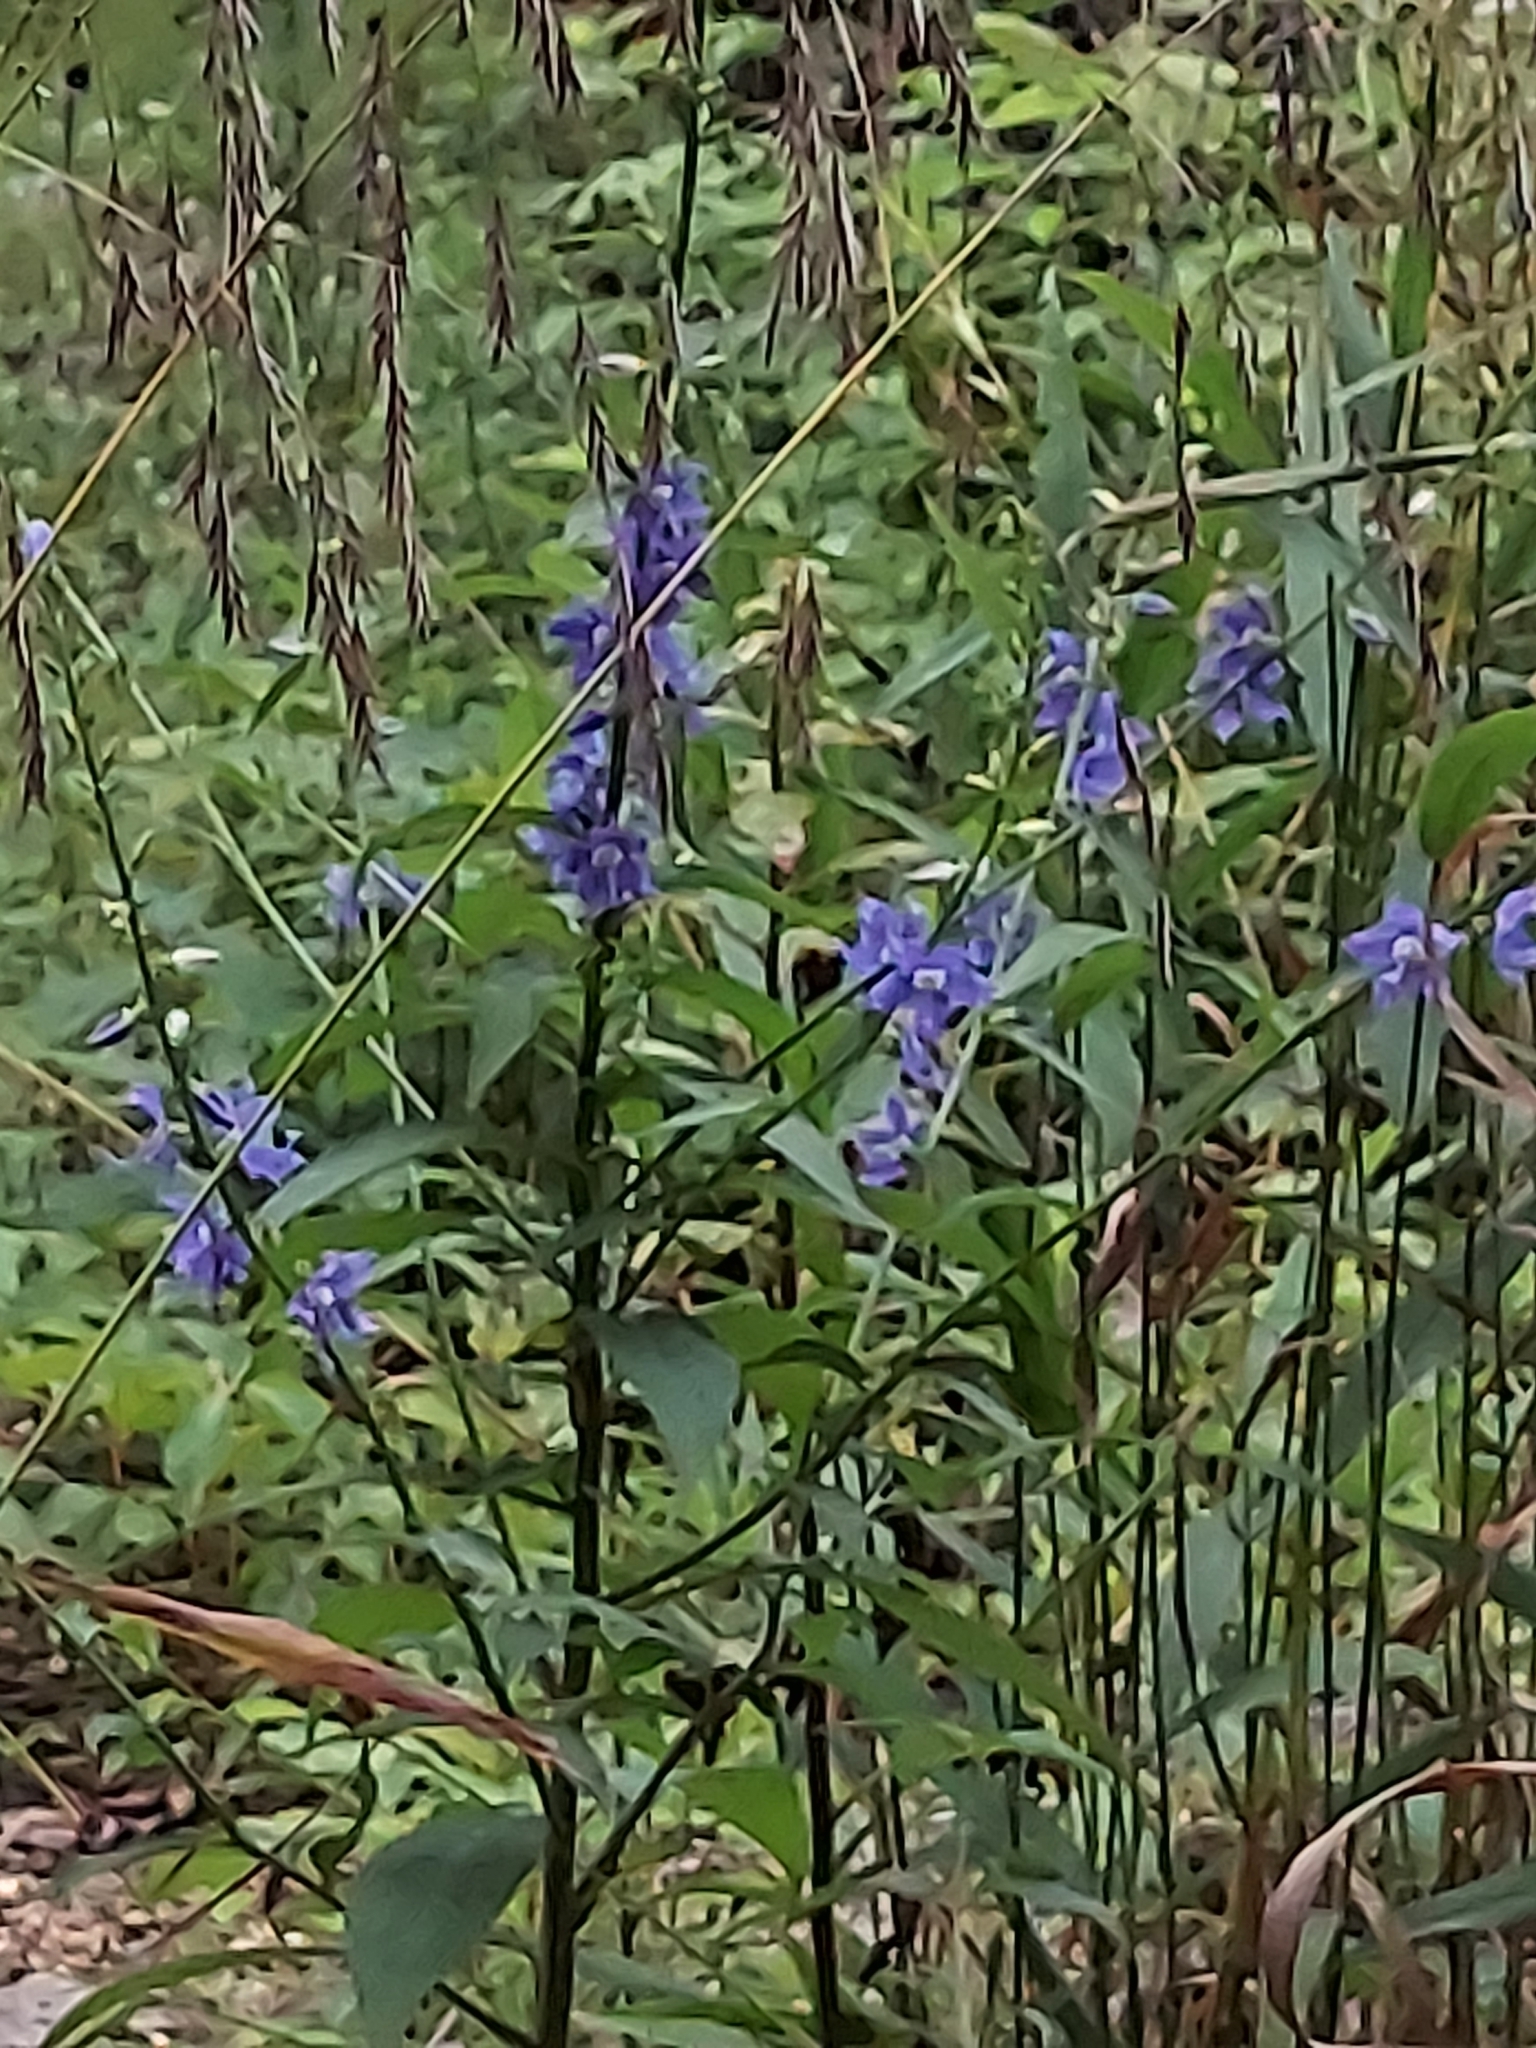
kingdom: Plantae
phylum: Tracheophyta
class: Magnoliopsida
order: Asterales
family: Campanulaceae
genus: Campanulastrum
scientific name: Campanulastrum americanum
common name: American bellflower
